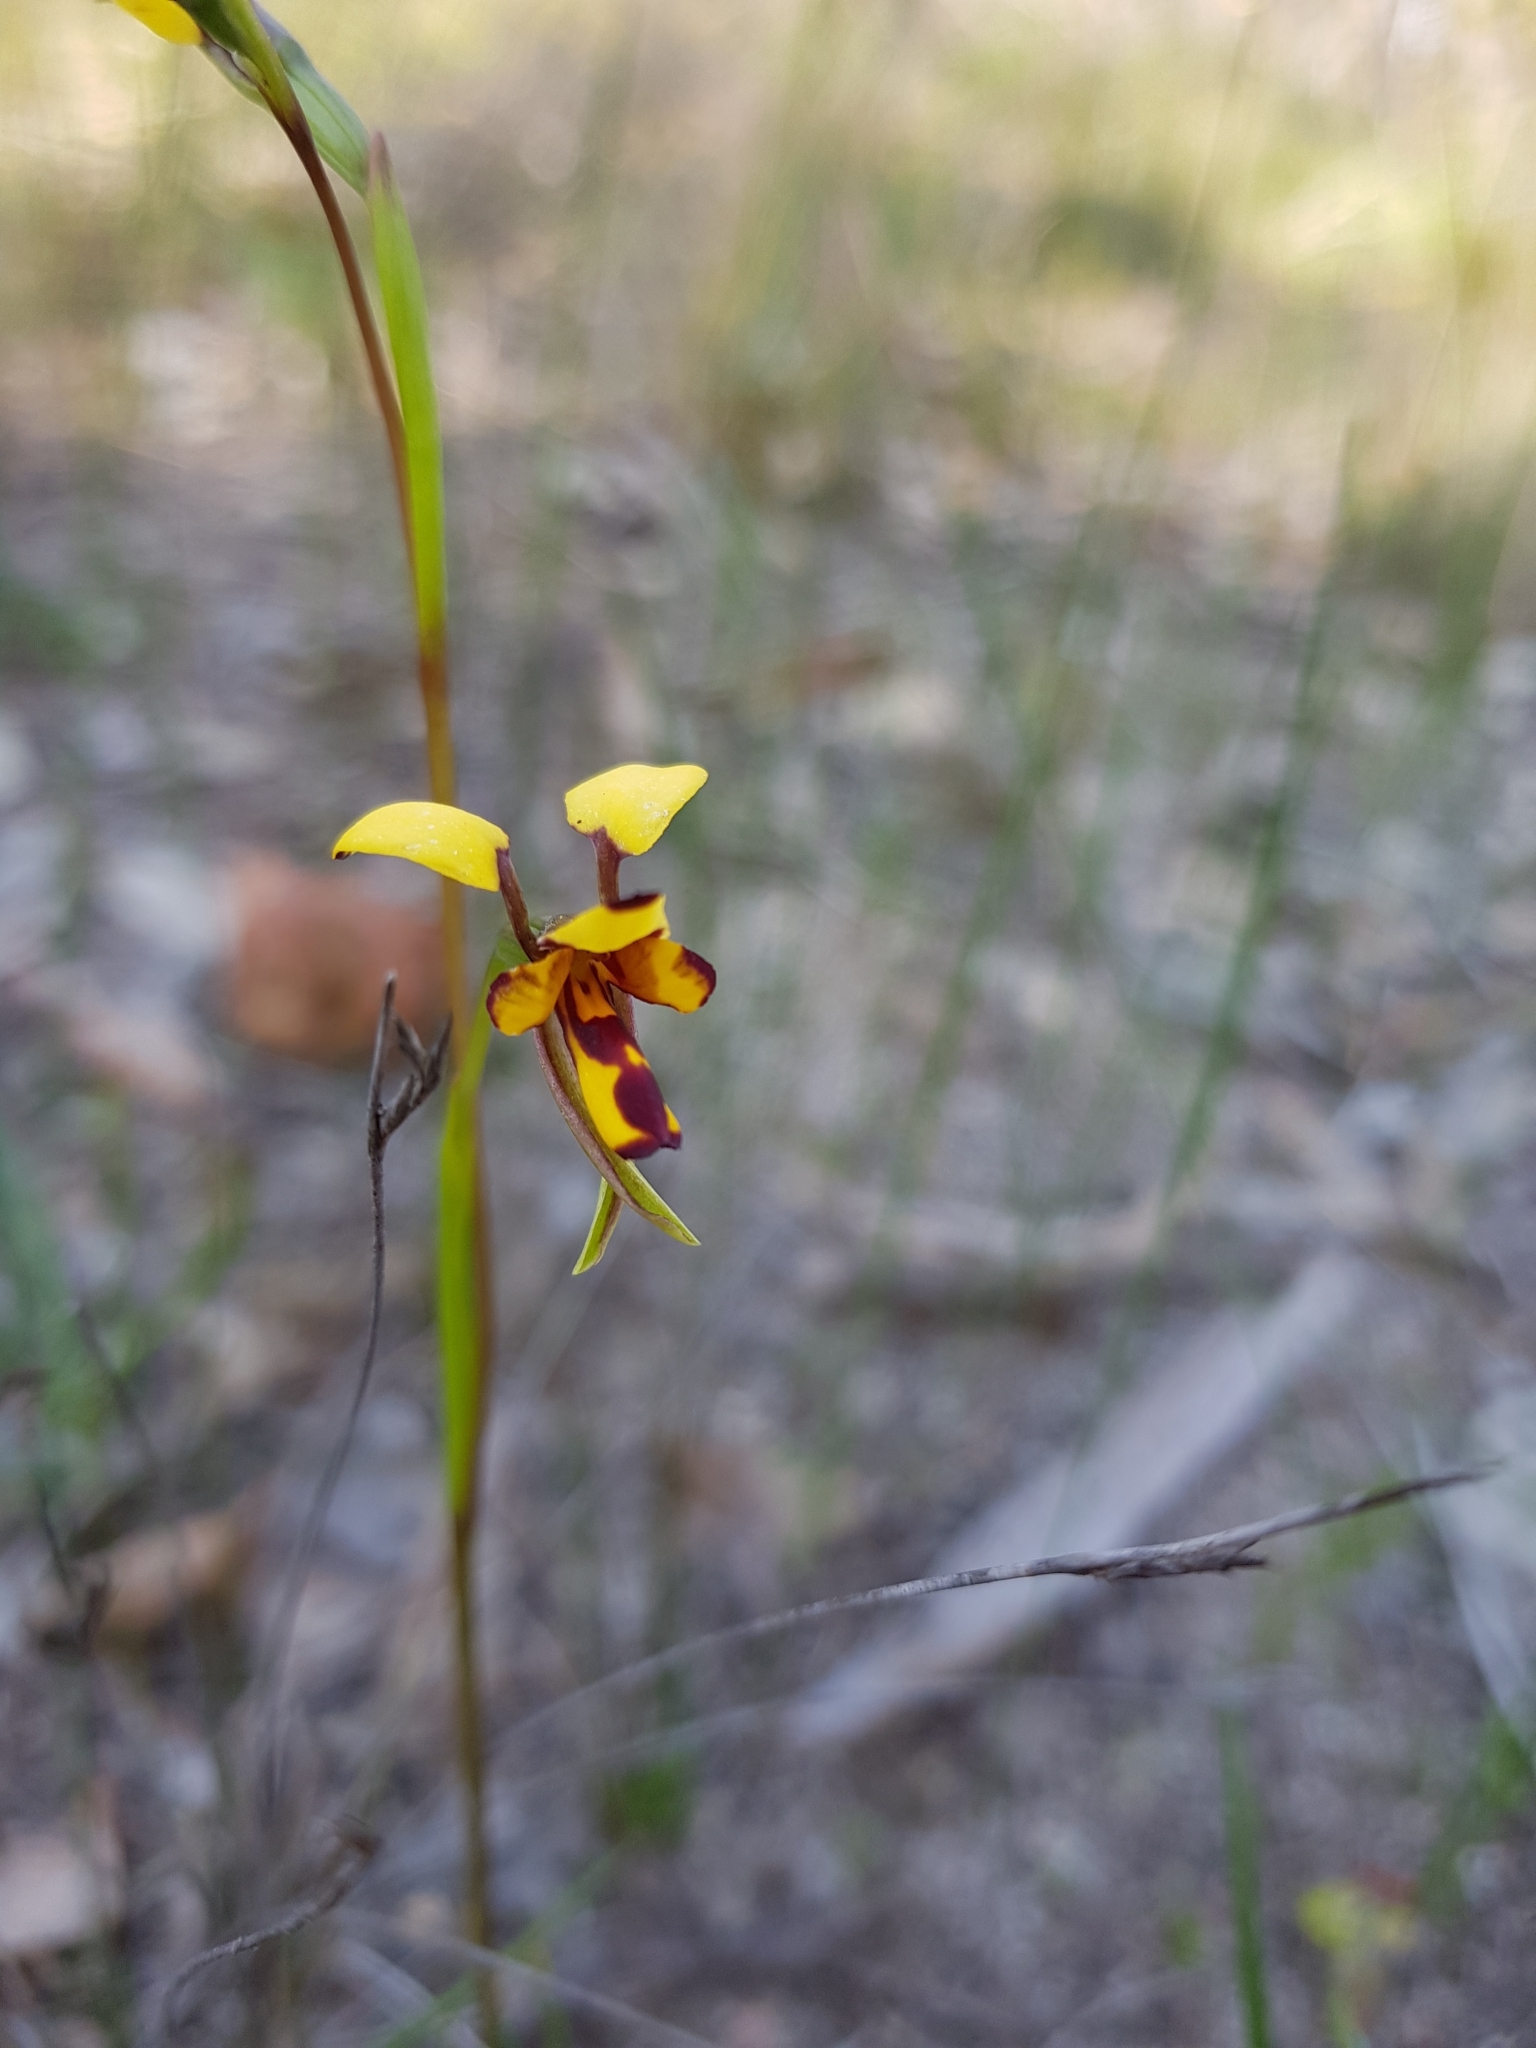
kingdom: Plantae
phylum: Tracheophyta
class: Liliopsida
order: Asparagales
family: Orchidaceae
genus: Diuris
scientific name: Diuris decrementum
